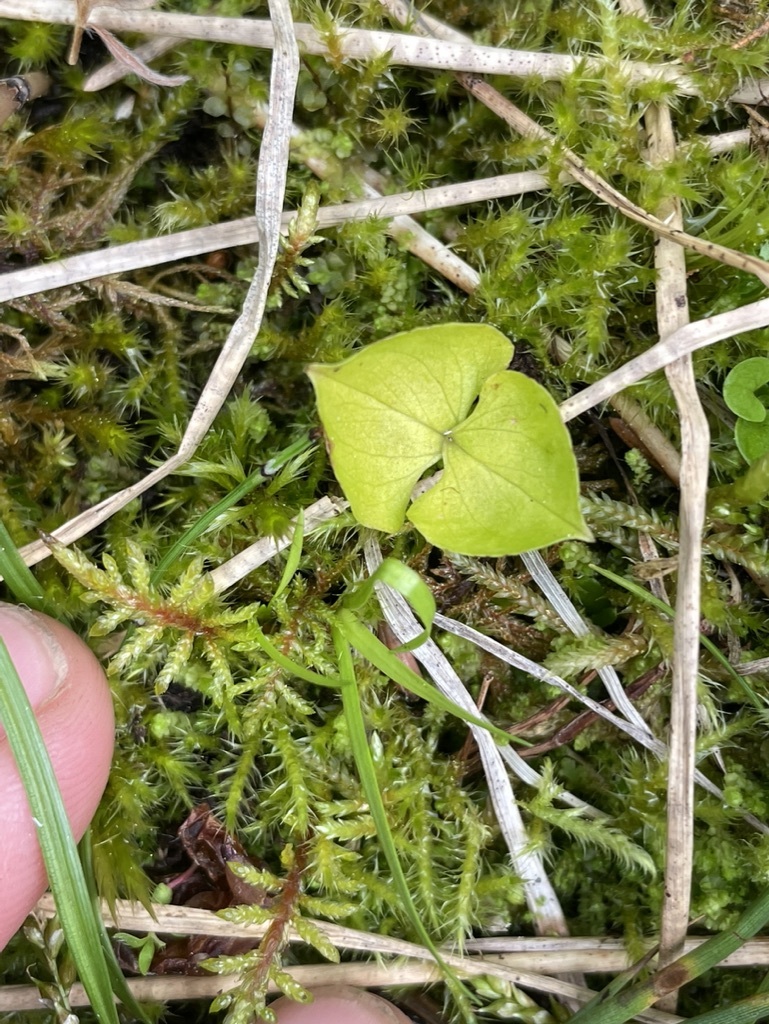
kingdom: Plantae
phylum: Tracheophyta
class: Liliopsida
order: Asparagales
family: Orchidaceae
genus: Neottia
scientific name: Neottia cordata
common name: Lesser twayblade
